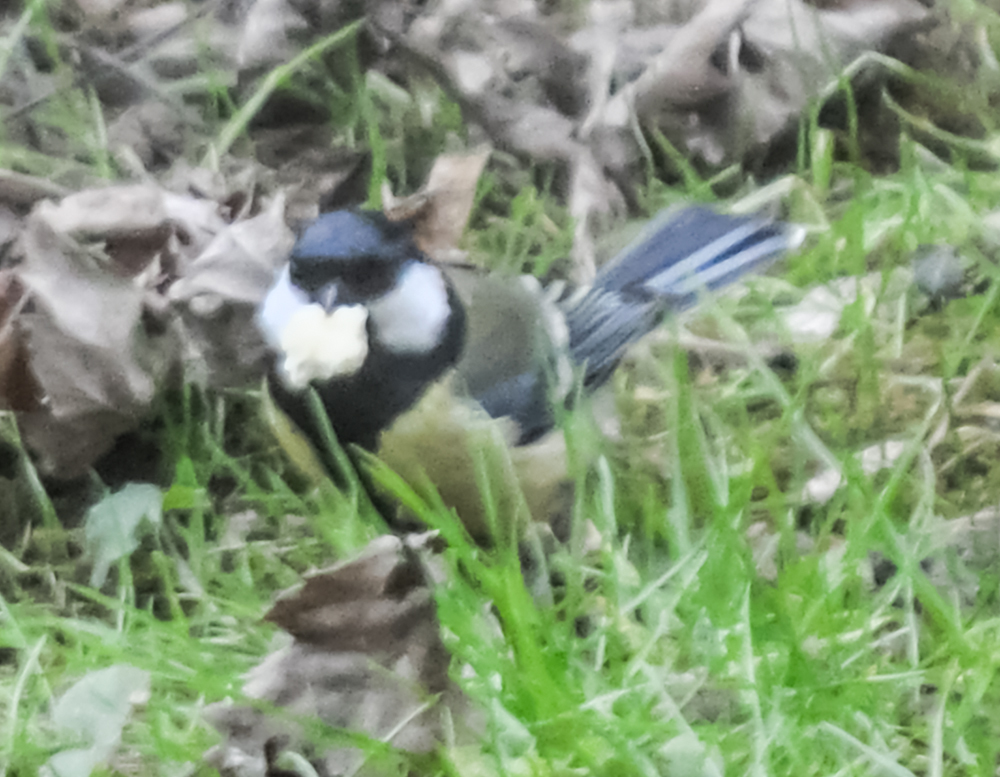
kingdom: Animalia
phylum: Chordata
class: Aves
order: Passeriformes
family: Paridae
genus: Parus
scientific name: Parus major
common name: Great tit
